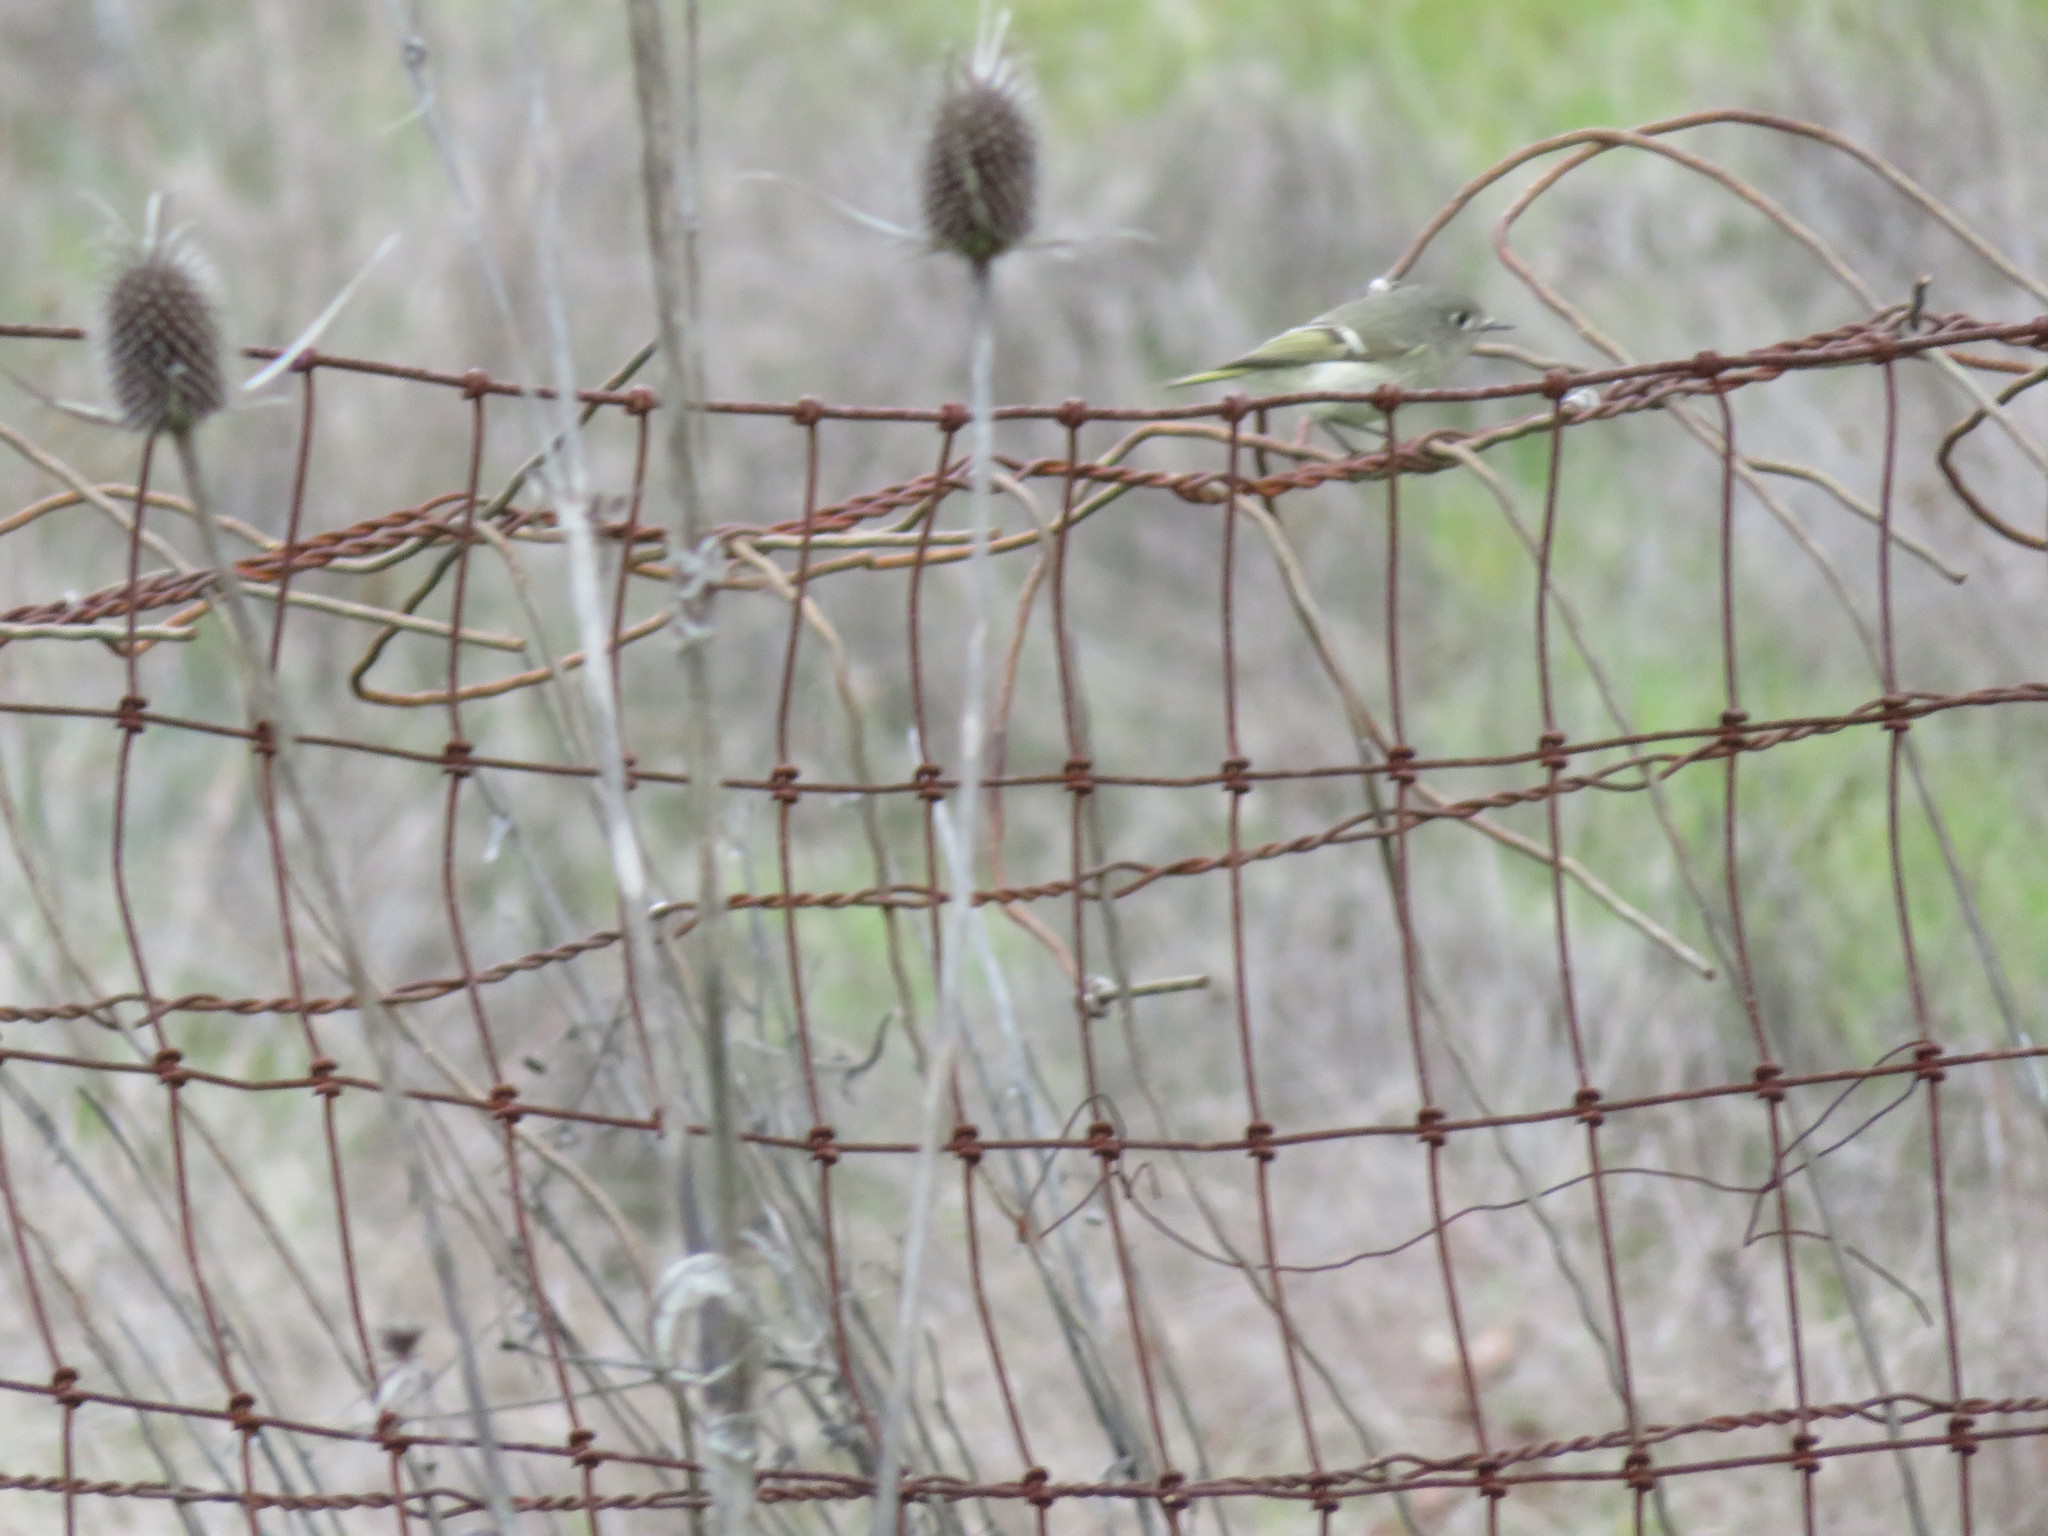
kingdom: Animalia
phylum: Chordata
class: Aves
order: Passeriformes
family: Regulidae
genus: Regulus
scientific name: Regulus calendula
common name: Ruby-crowned kinglet
